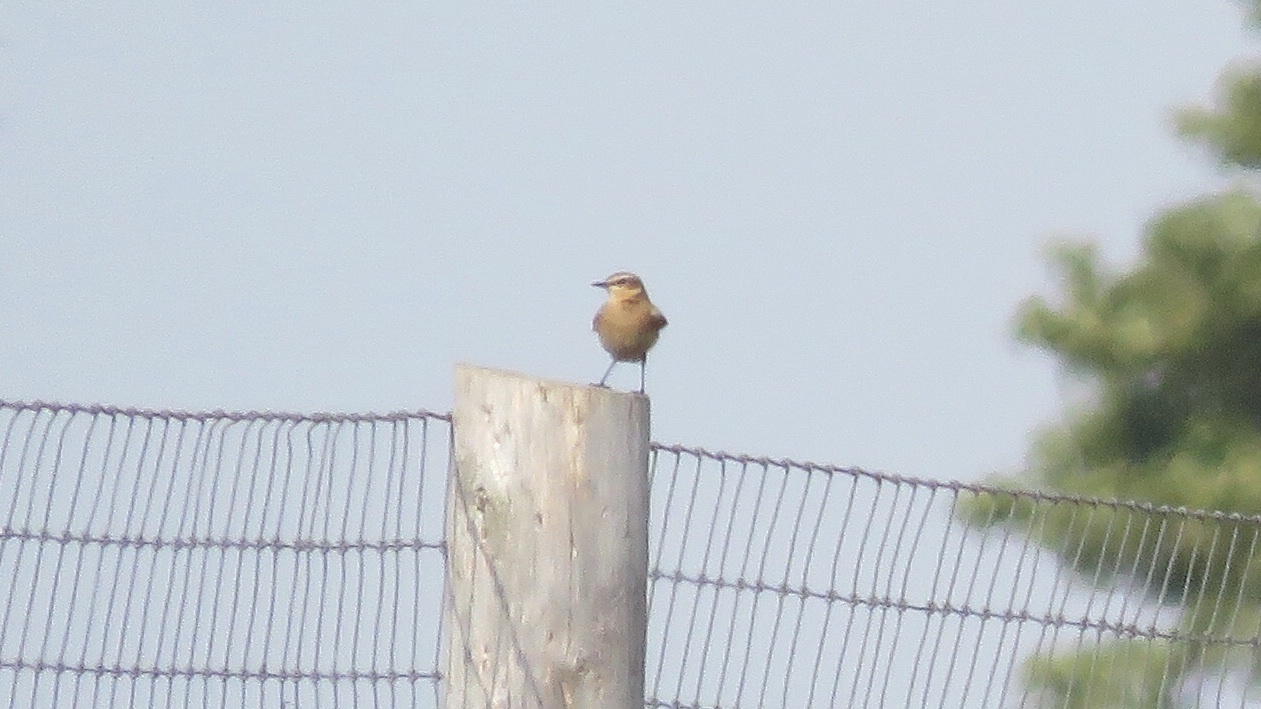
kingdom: Animalia
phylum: Chordata
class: Aves
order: Passeriformes
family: Muscicapidae
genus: Oenanthe
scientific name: Oenanthe oenanthe
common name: Northern wheatear
